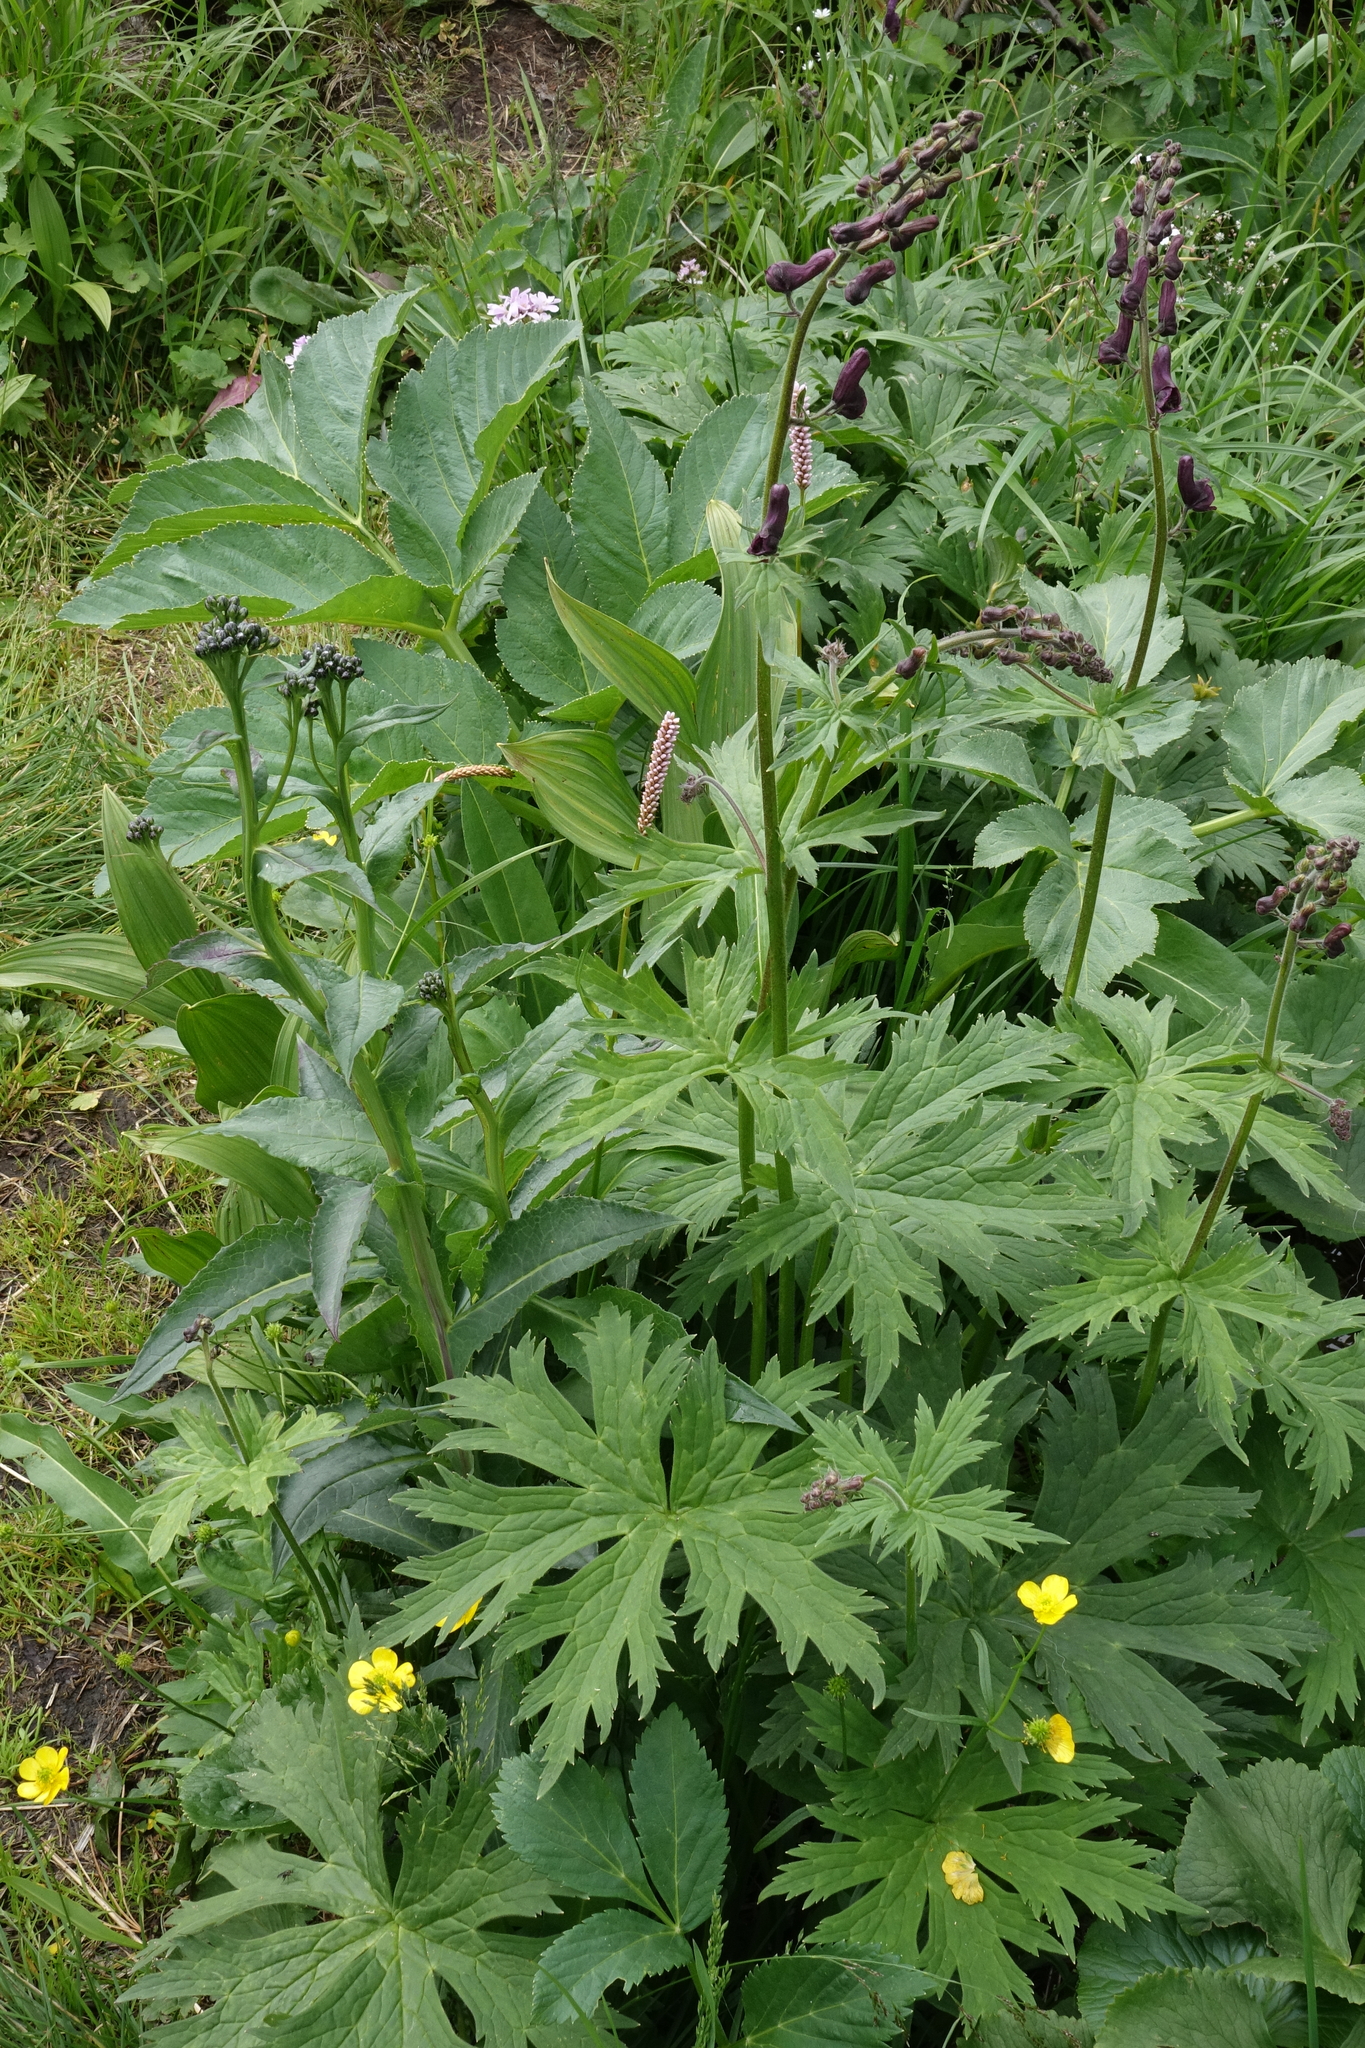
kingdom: Plantae
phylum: Tracheophyta
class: Magnoliopsida
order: Ranunculales
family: Ranunculaceae
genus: Aconitum
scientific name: Aconitum septentrionale
